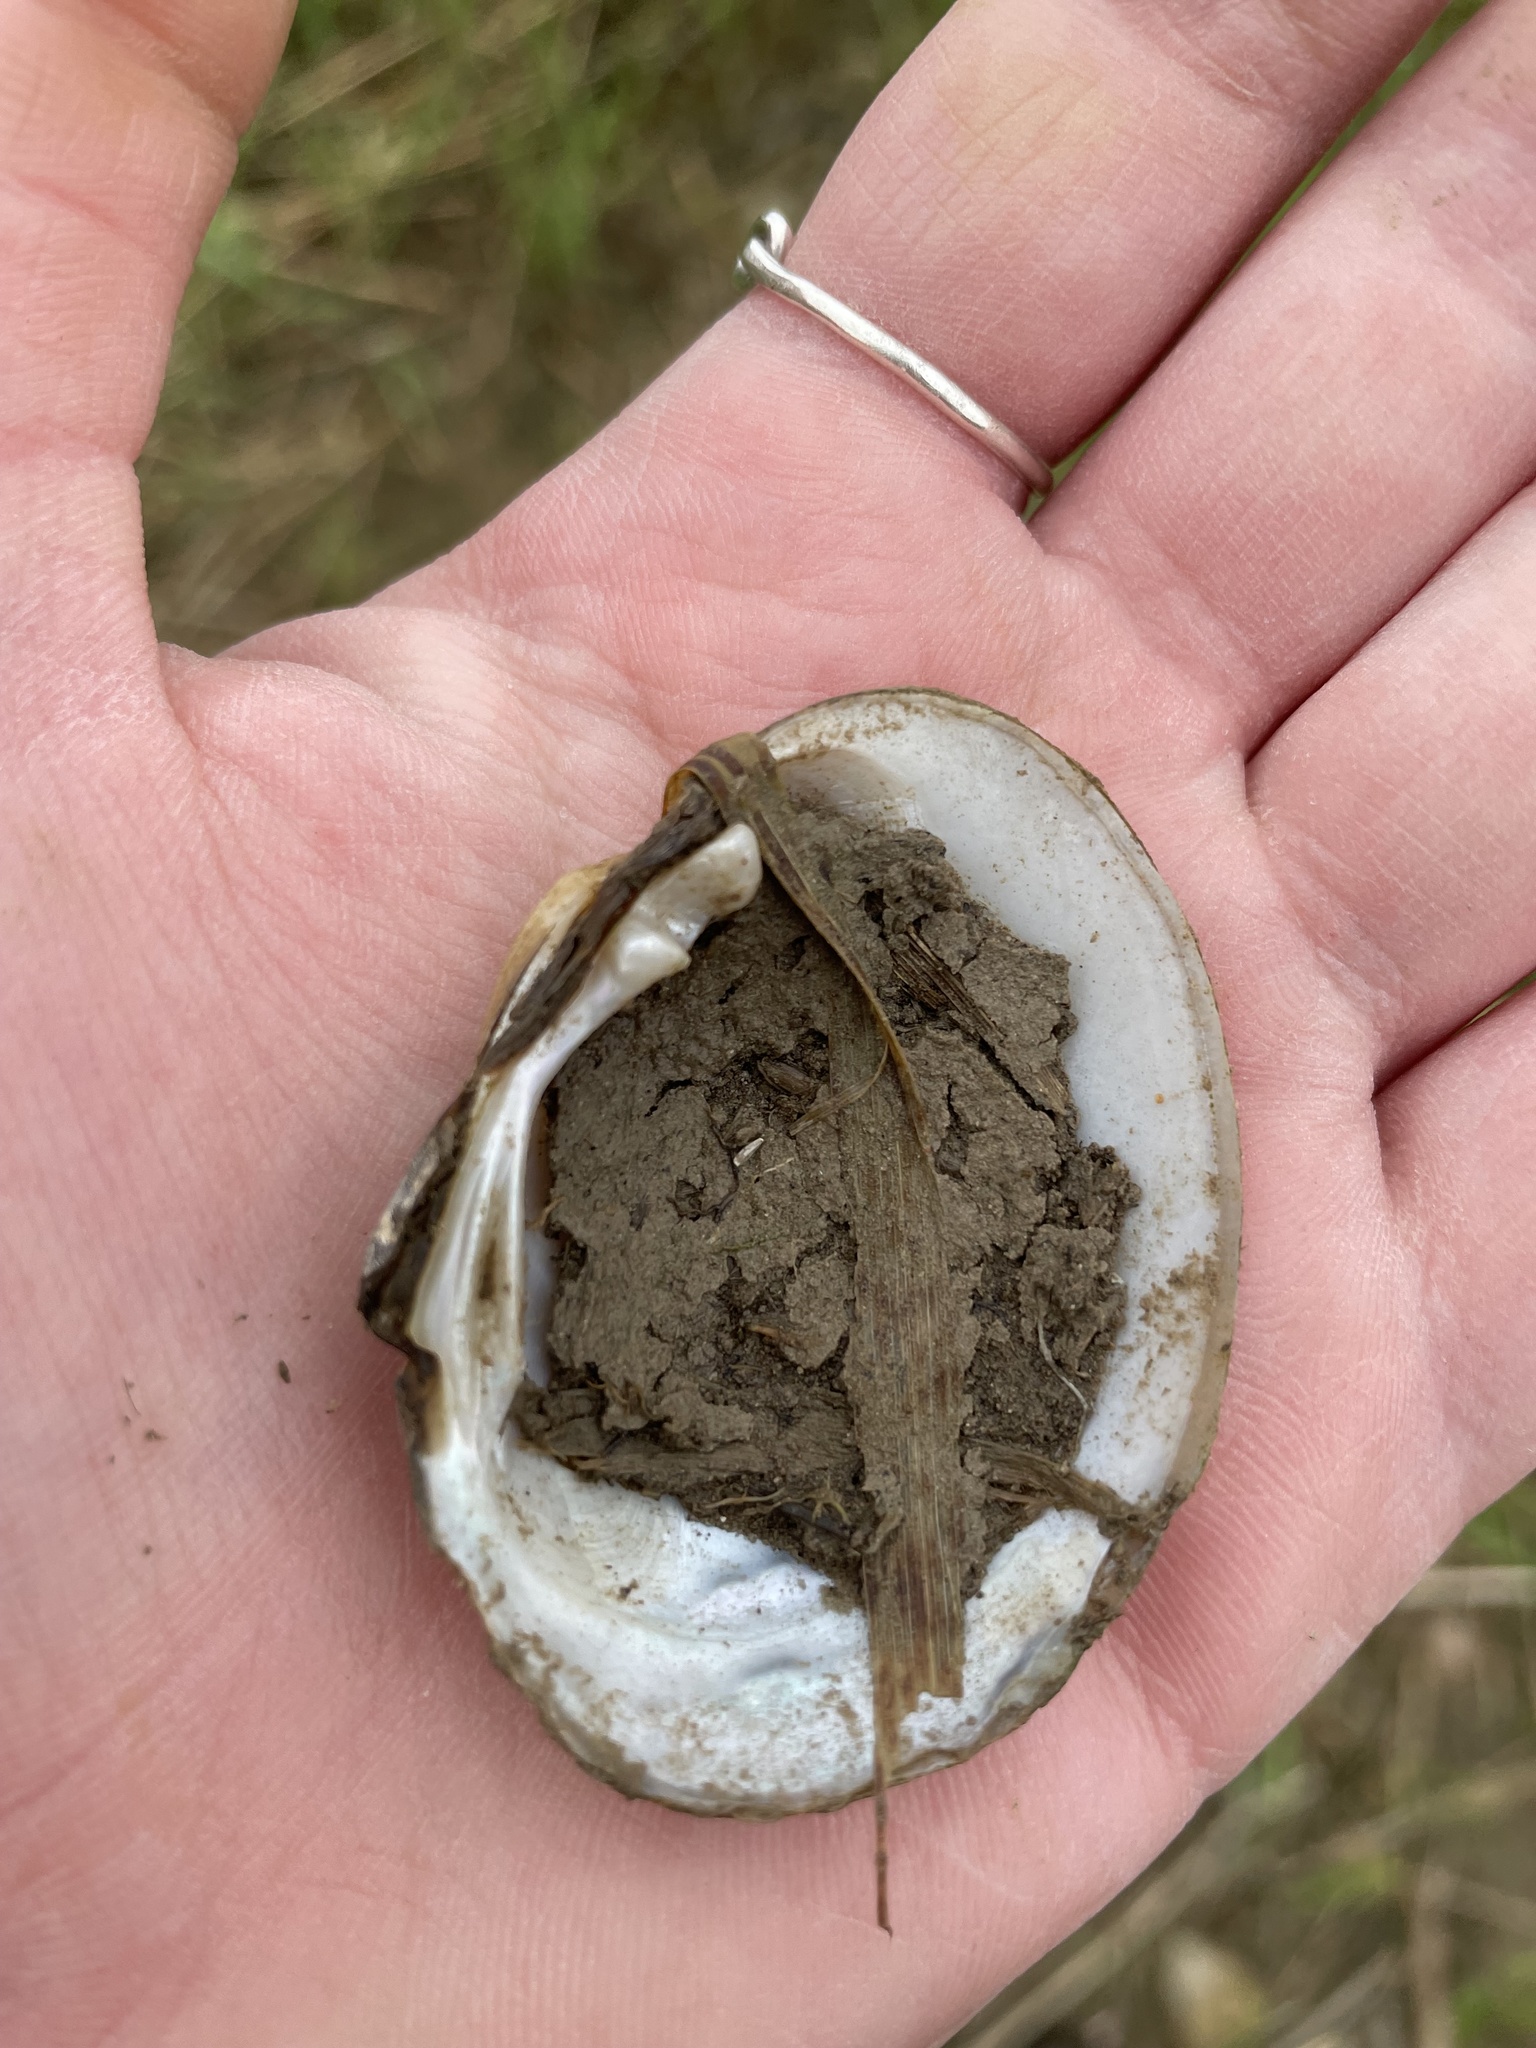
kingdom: Animalia
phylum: Mollusca
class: Bivalvia
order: Unionida
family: Unionidae
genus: Lampsilis
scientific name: Lampsilis fasciola
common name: Wavyrayed lampmussel
